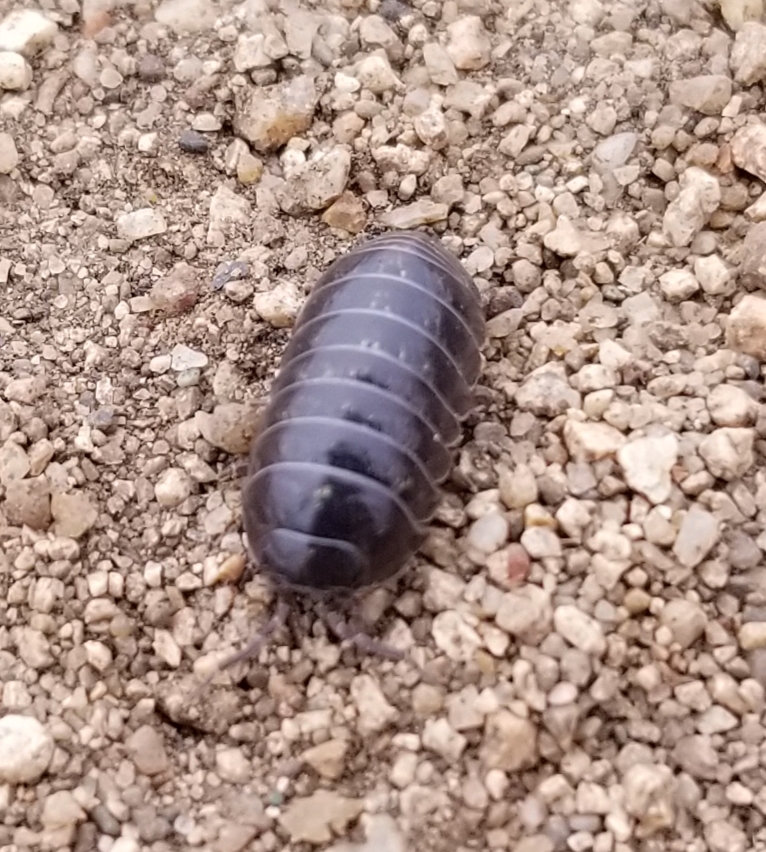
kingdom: Animalia
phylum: Arthropoda
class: Malacostraca
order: Isopoda
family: Armadillidiidae
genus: Armadillidium
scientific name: Armadillidium vulgare
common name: Common pill woodlouse
